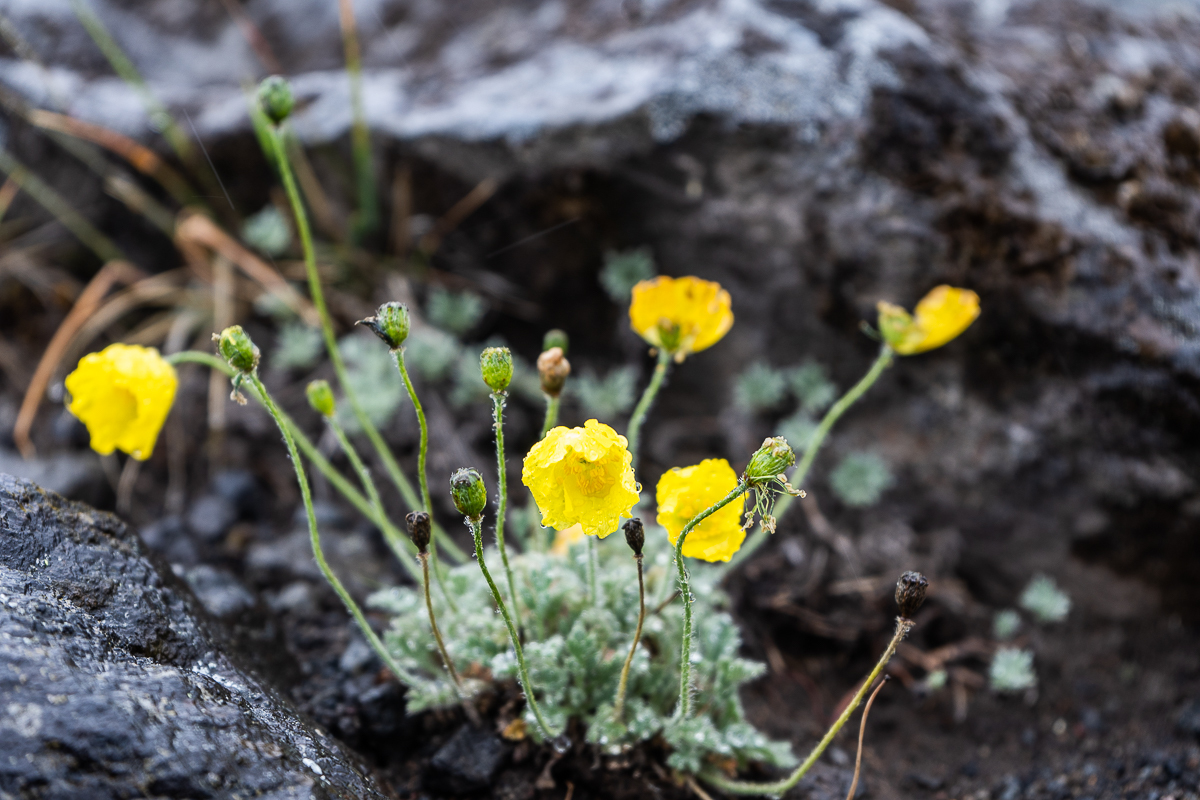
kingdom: Plantae
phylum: Tracheophyta
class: Magnoliopsida
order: Ranunculales
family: Papaveraceae
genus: Papaver
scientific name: Papaver microcarpum
